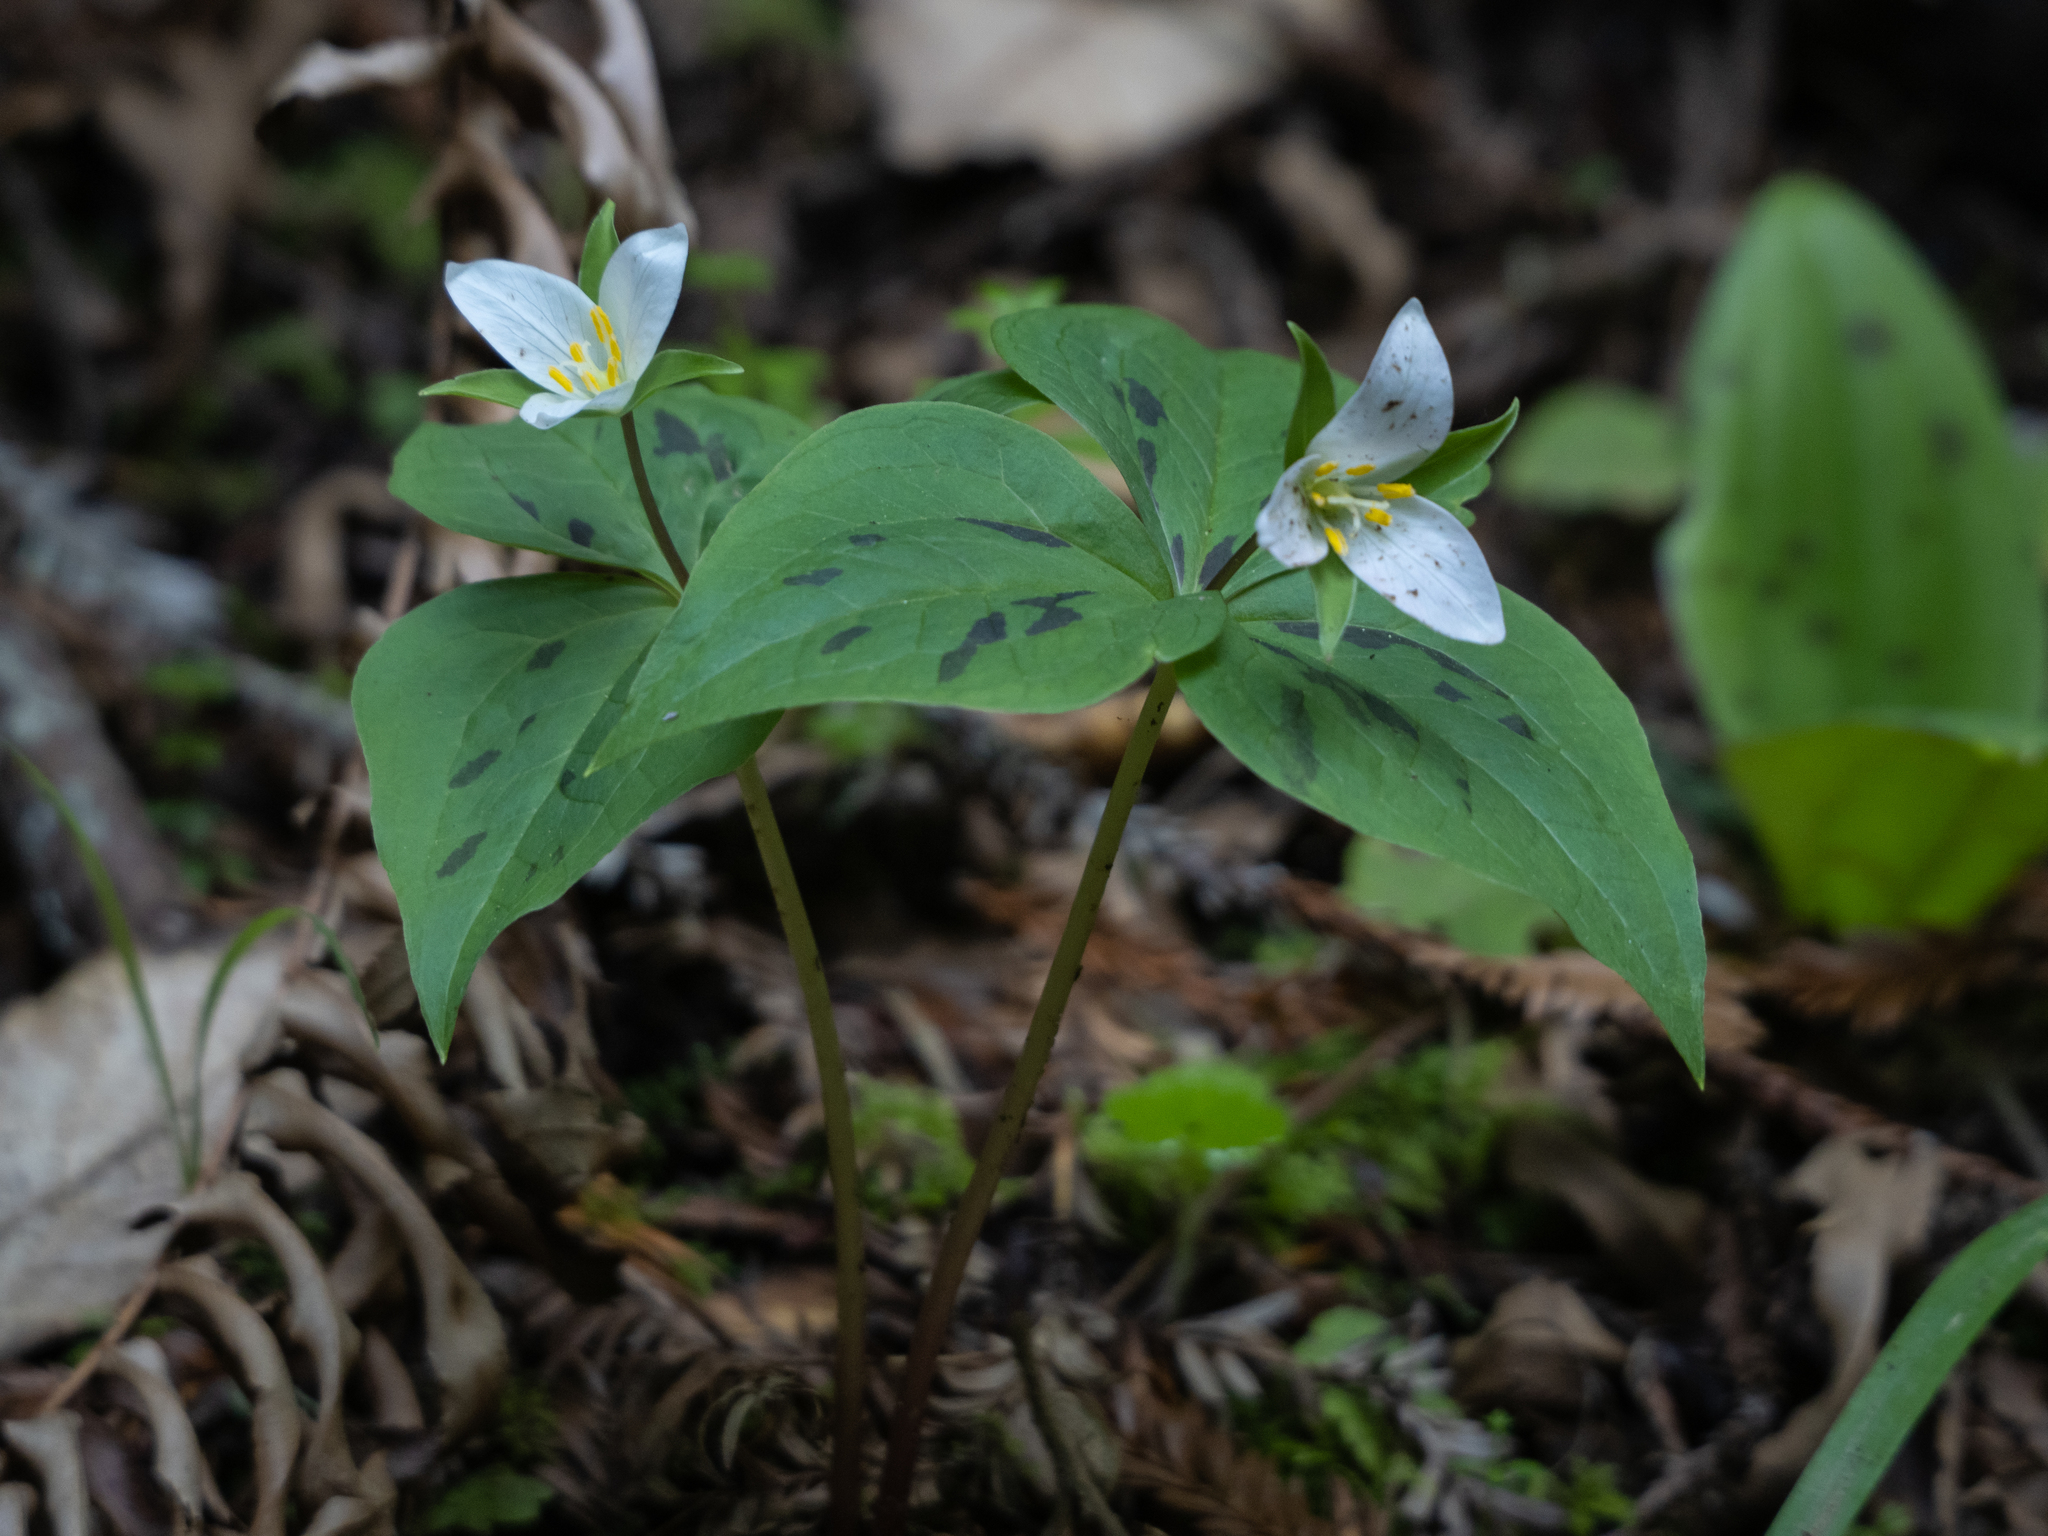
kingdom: Plantae
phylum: Tracheophyta
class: Liliopsida
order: Liliales
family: Melanthiaceae
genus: Trillium
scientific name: Trillium ovatum
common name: Pacific trillium
